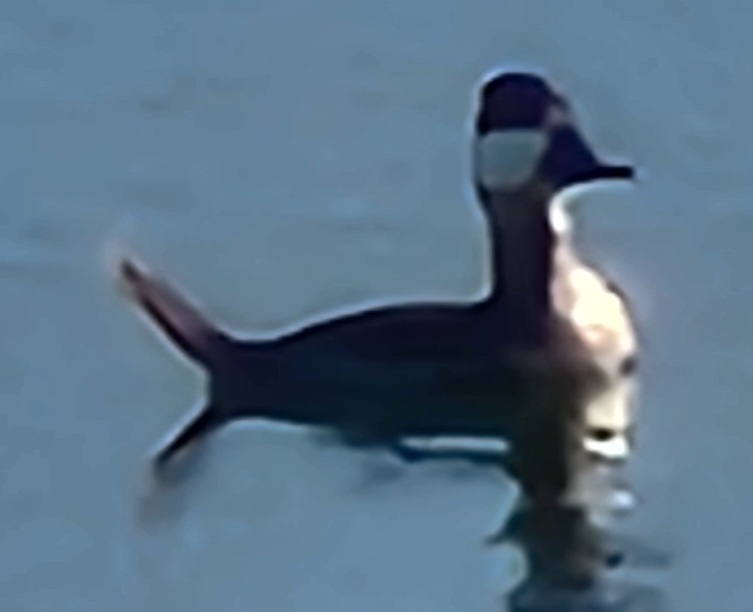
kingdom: Animalia
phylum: Chordata
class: Aves
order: Anseriformes
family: Anatidae
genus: Oxyura
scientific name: Oxyura jamaicensis
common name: Ruddy duck
